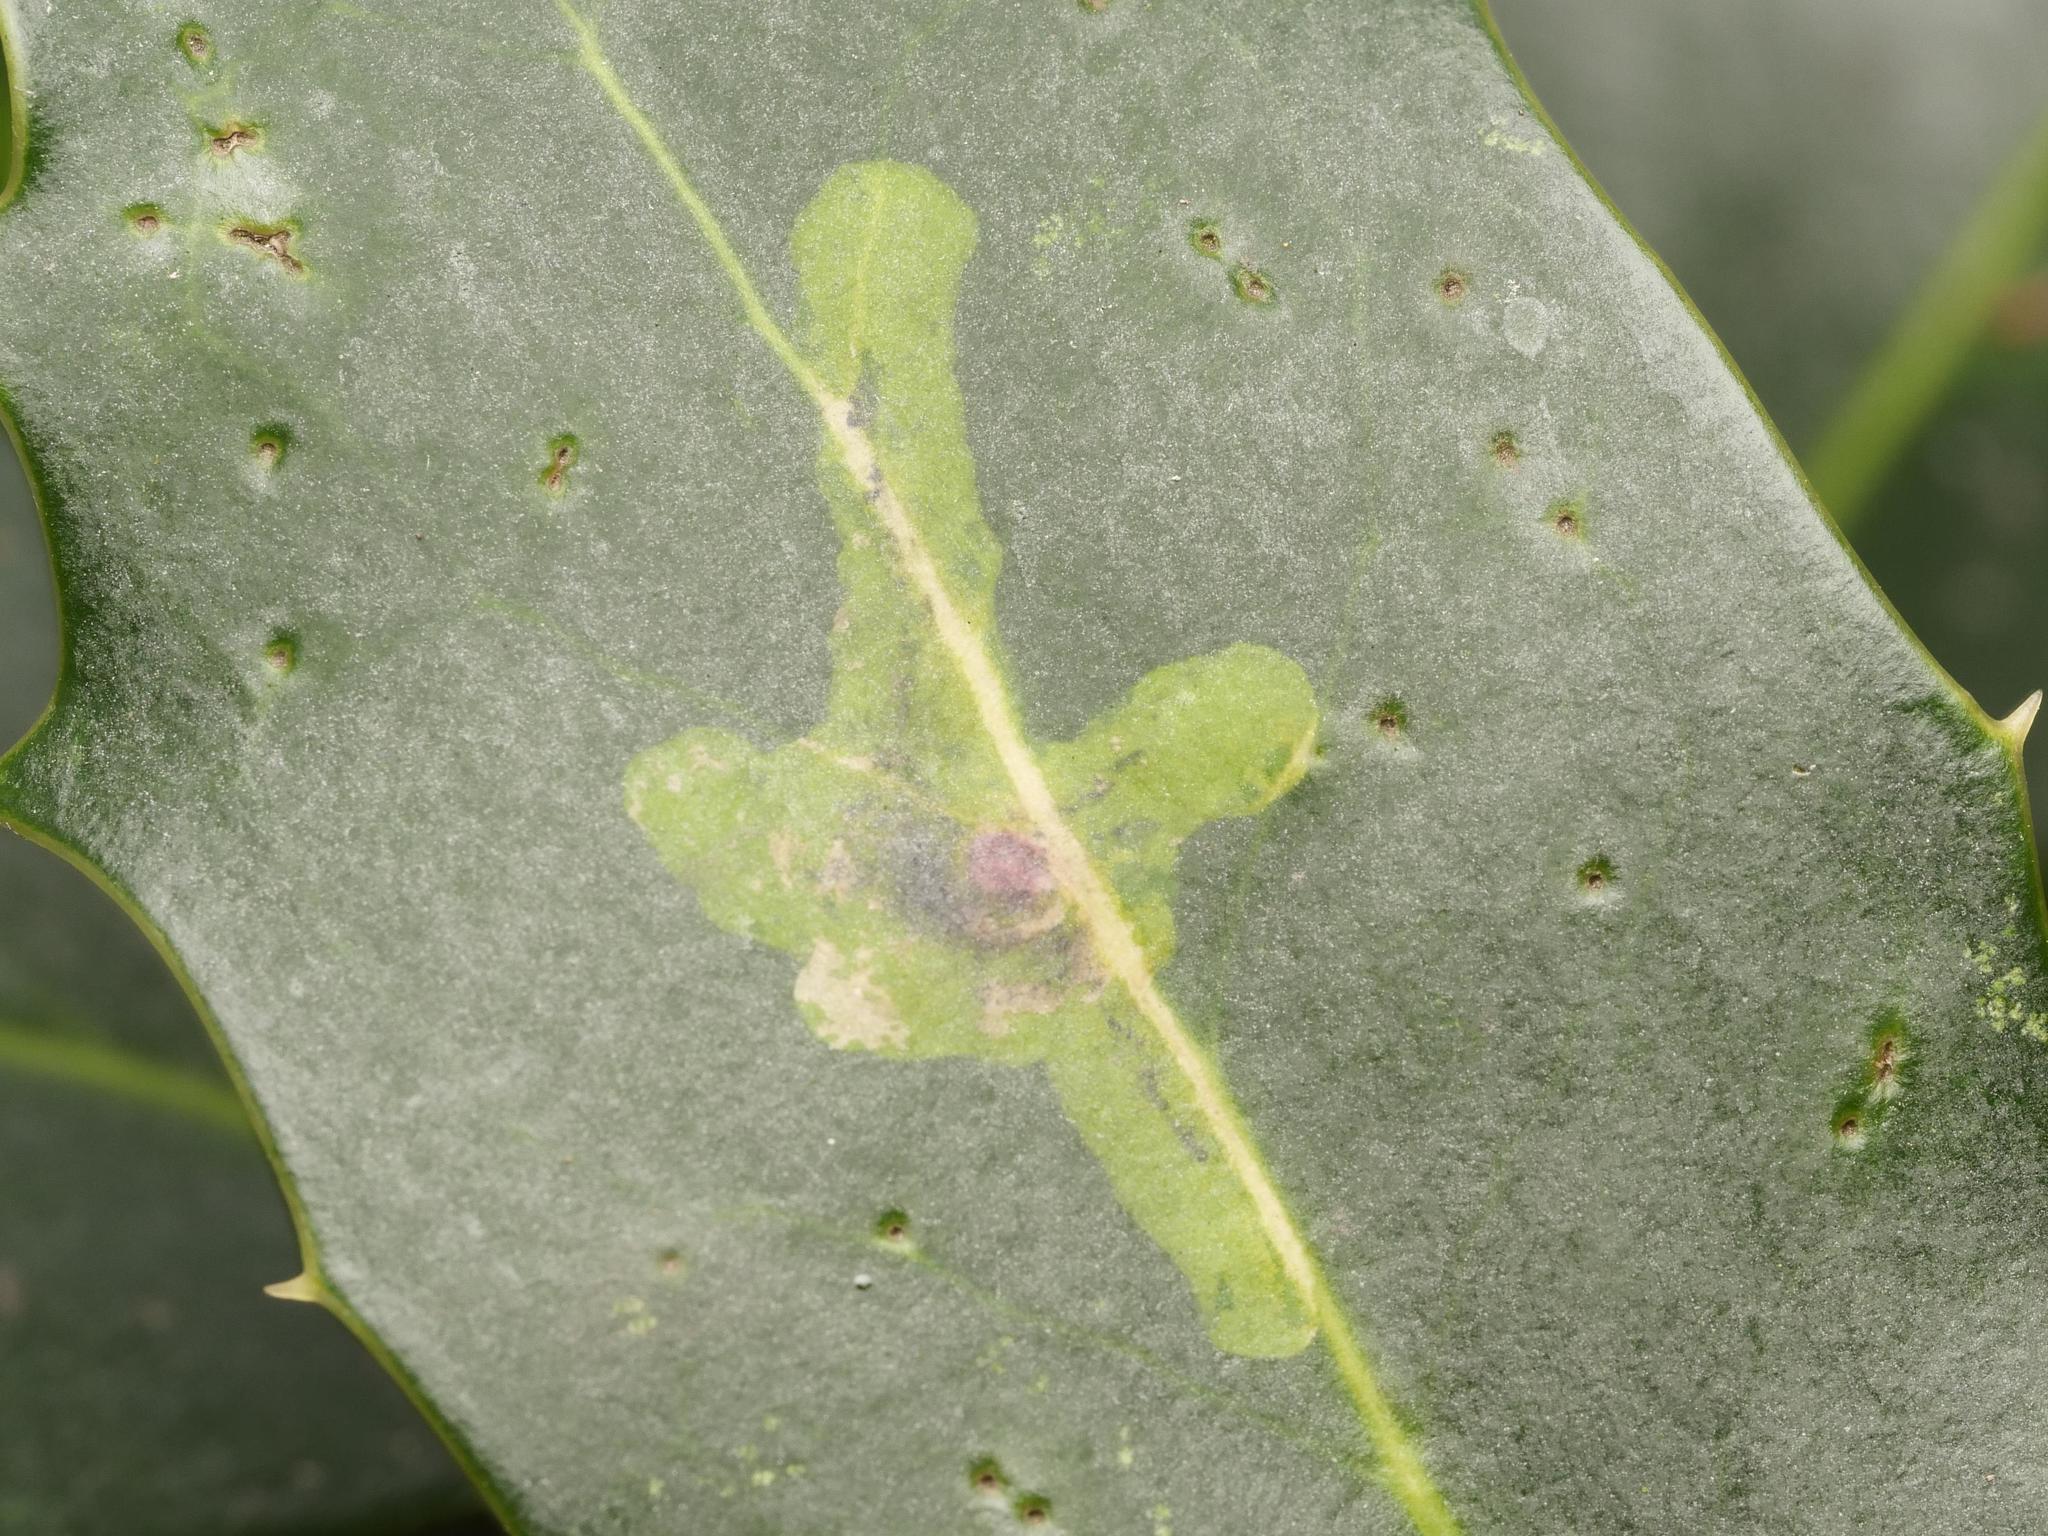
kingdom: Animalia
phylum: Arthropoda
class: Insecta
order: Diptera
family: Agromyzidae
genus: Phytomyza
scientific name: Phytomyza ilicis
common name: Holly leafminer
